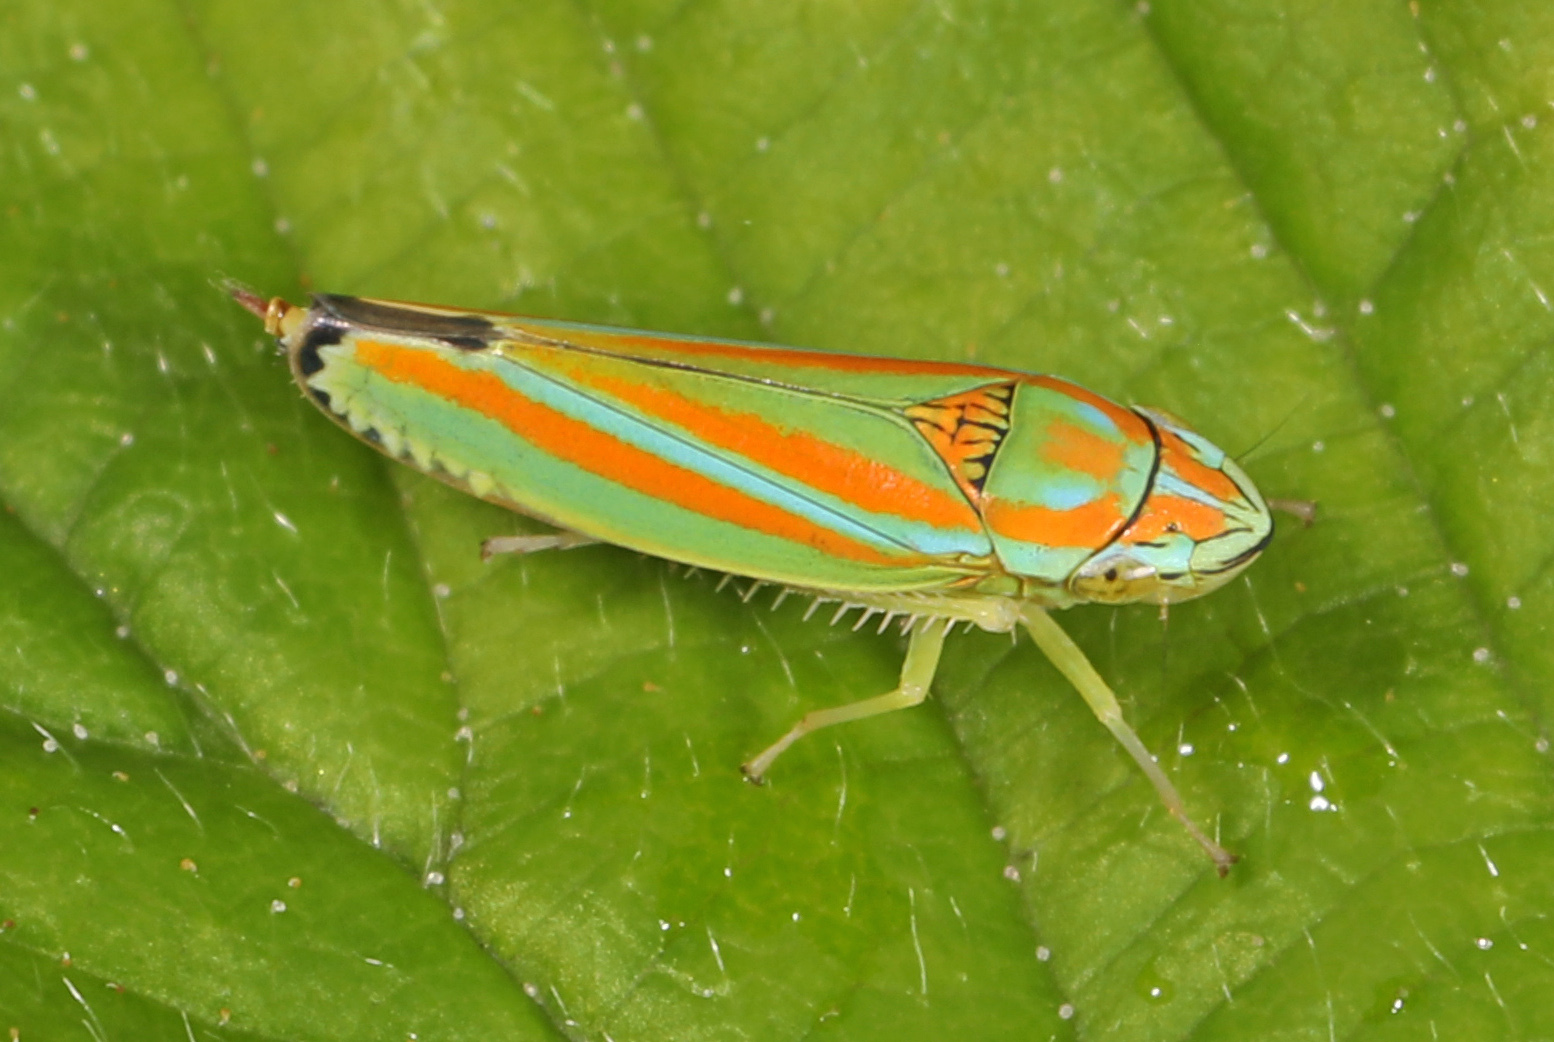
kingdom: Animalia
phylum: Arthropoda
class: Insecta
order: Hemiptera
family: Cicadellidae
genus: Graphocephala
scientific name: Graphocephala versuta
